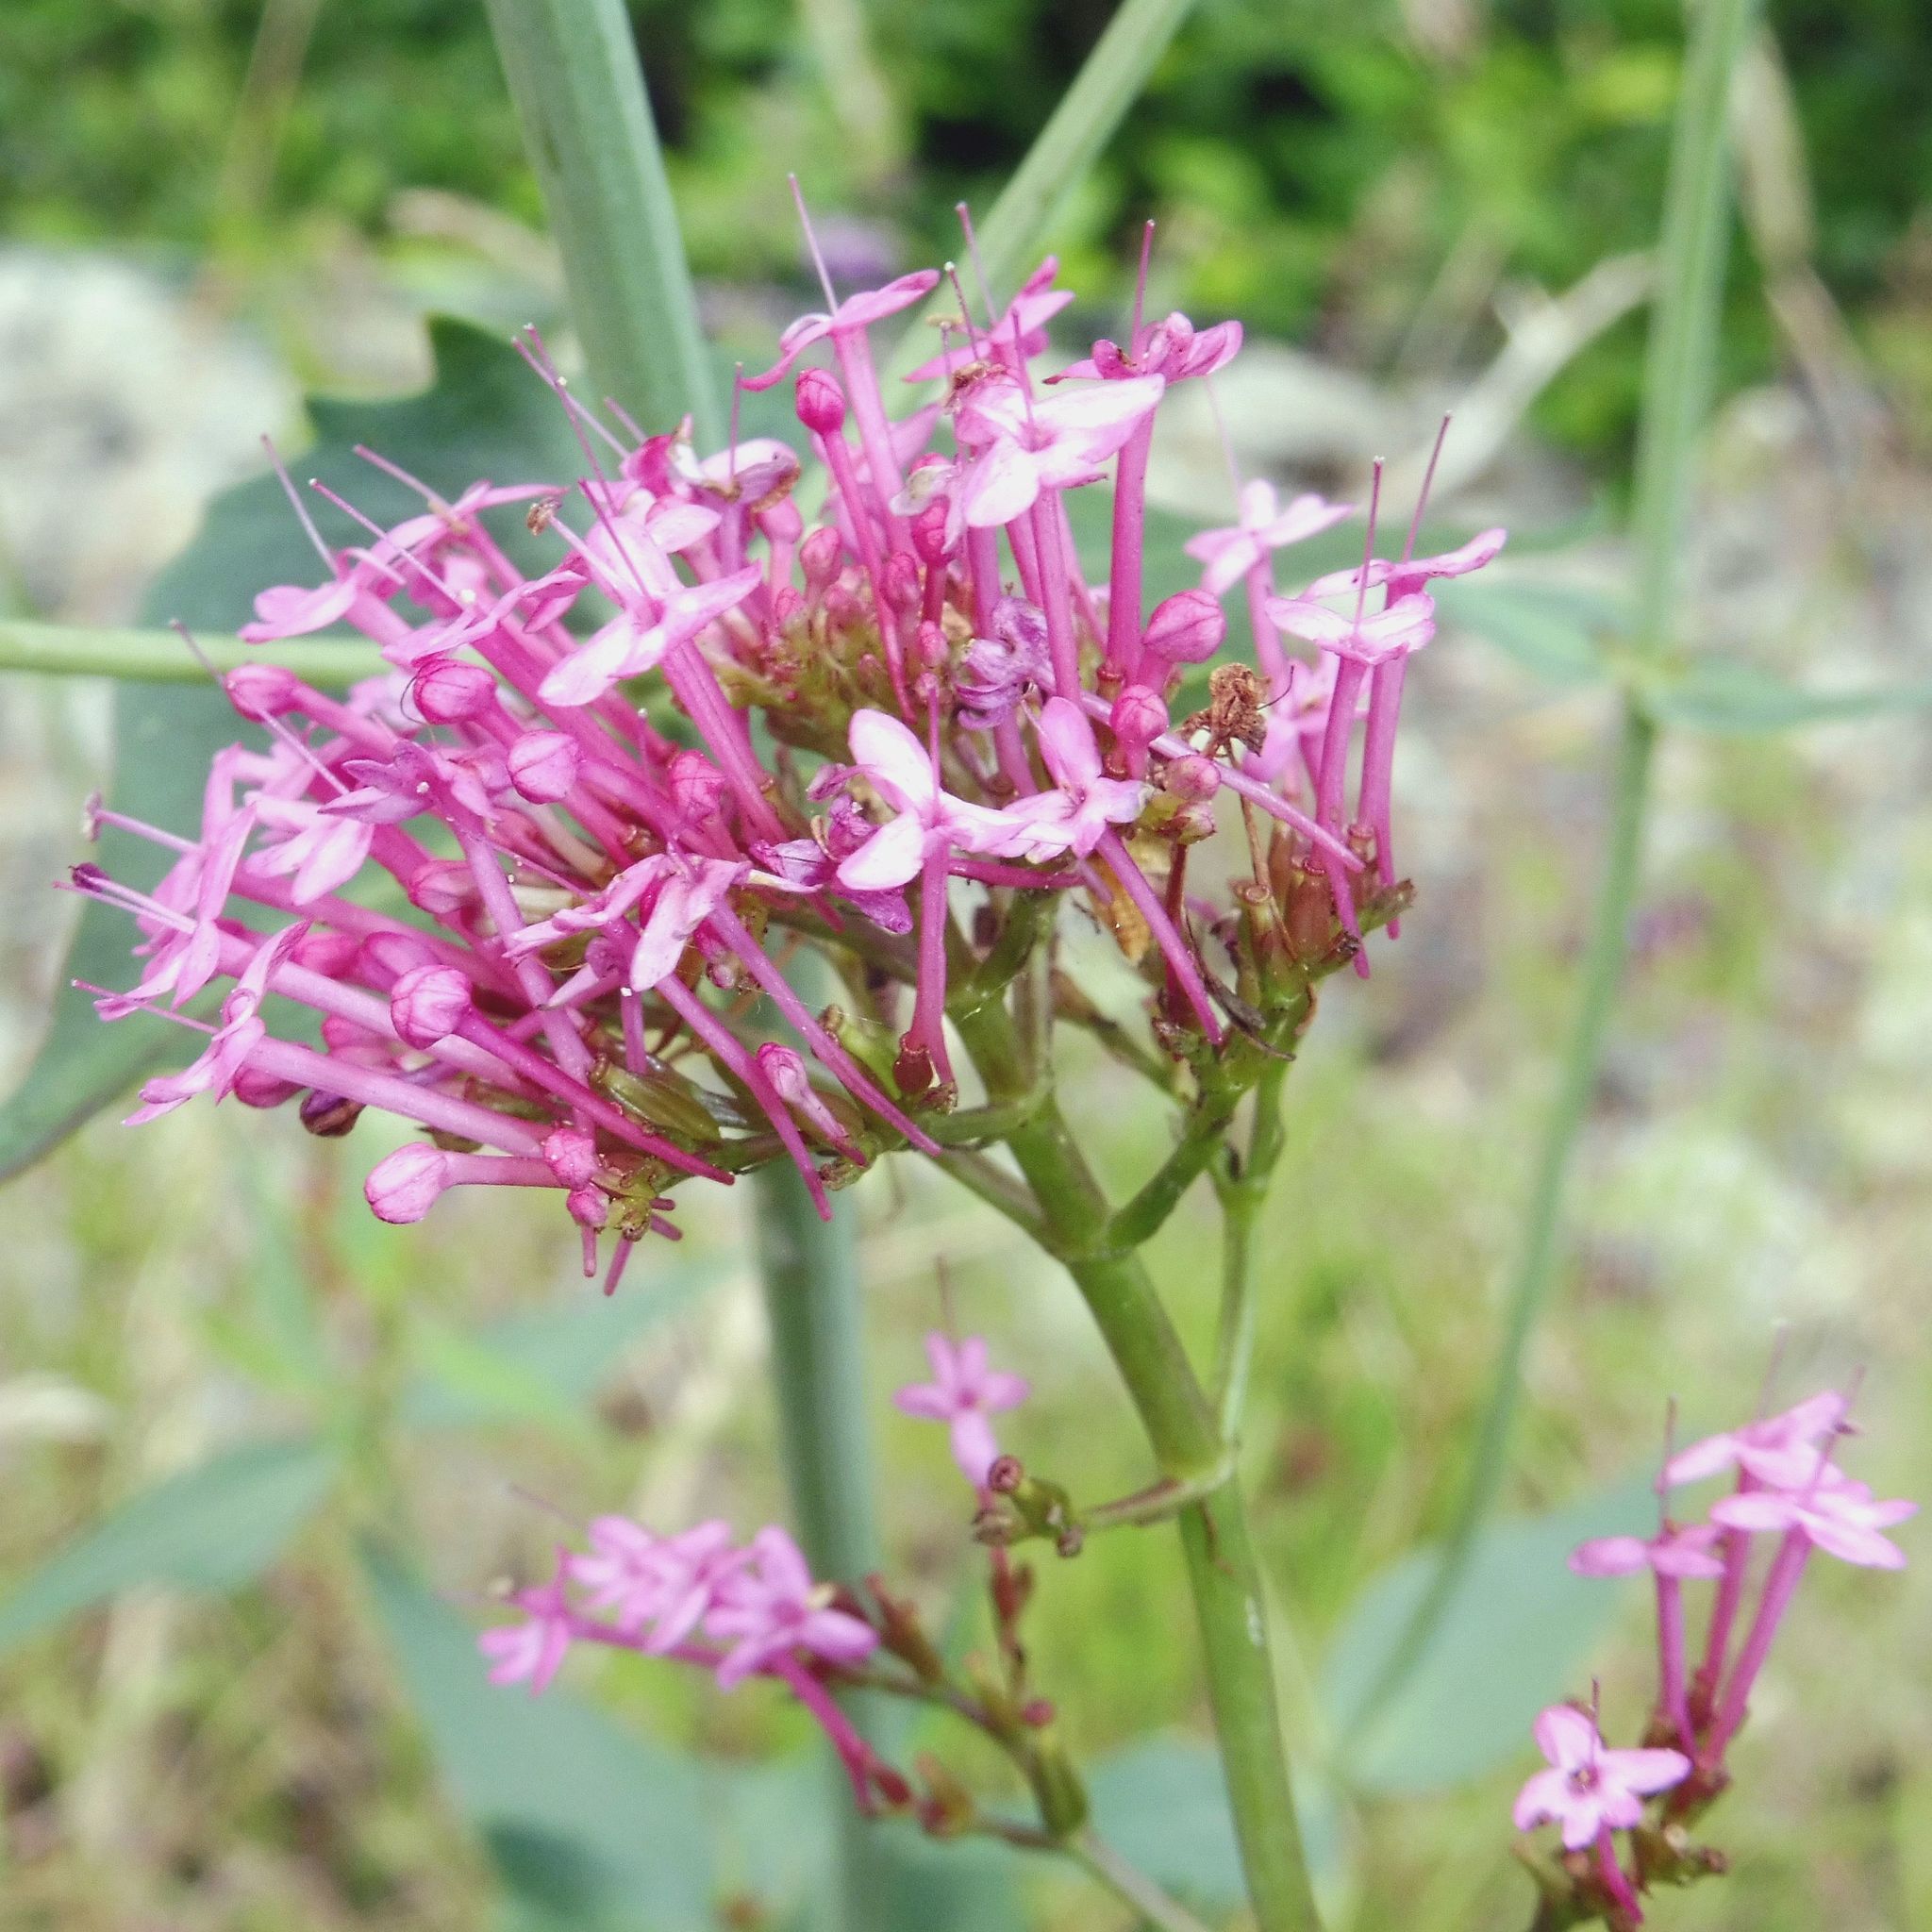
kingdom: Plantae
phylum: Tracheophyta
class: Magnoliopsida
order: Dipsacales
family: Caprifoliaceae
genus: Centranthus
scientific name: Centranthus ruber
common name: Red valerian
